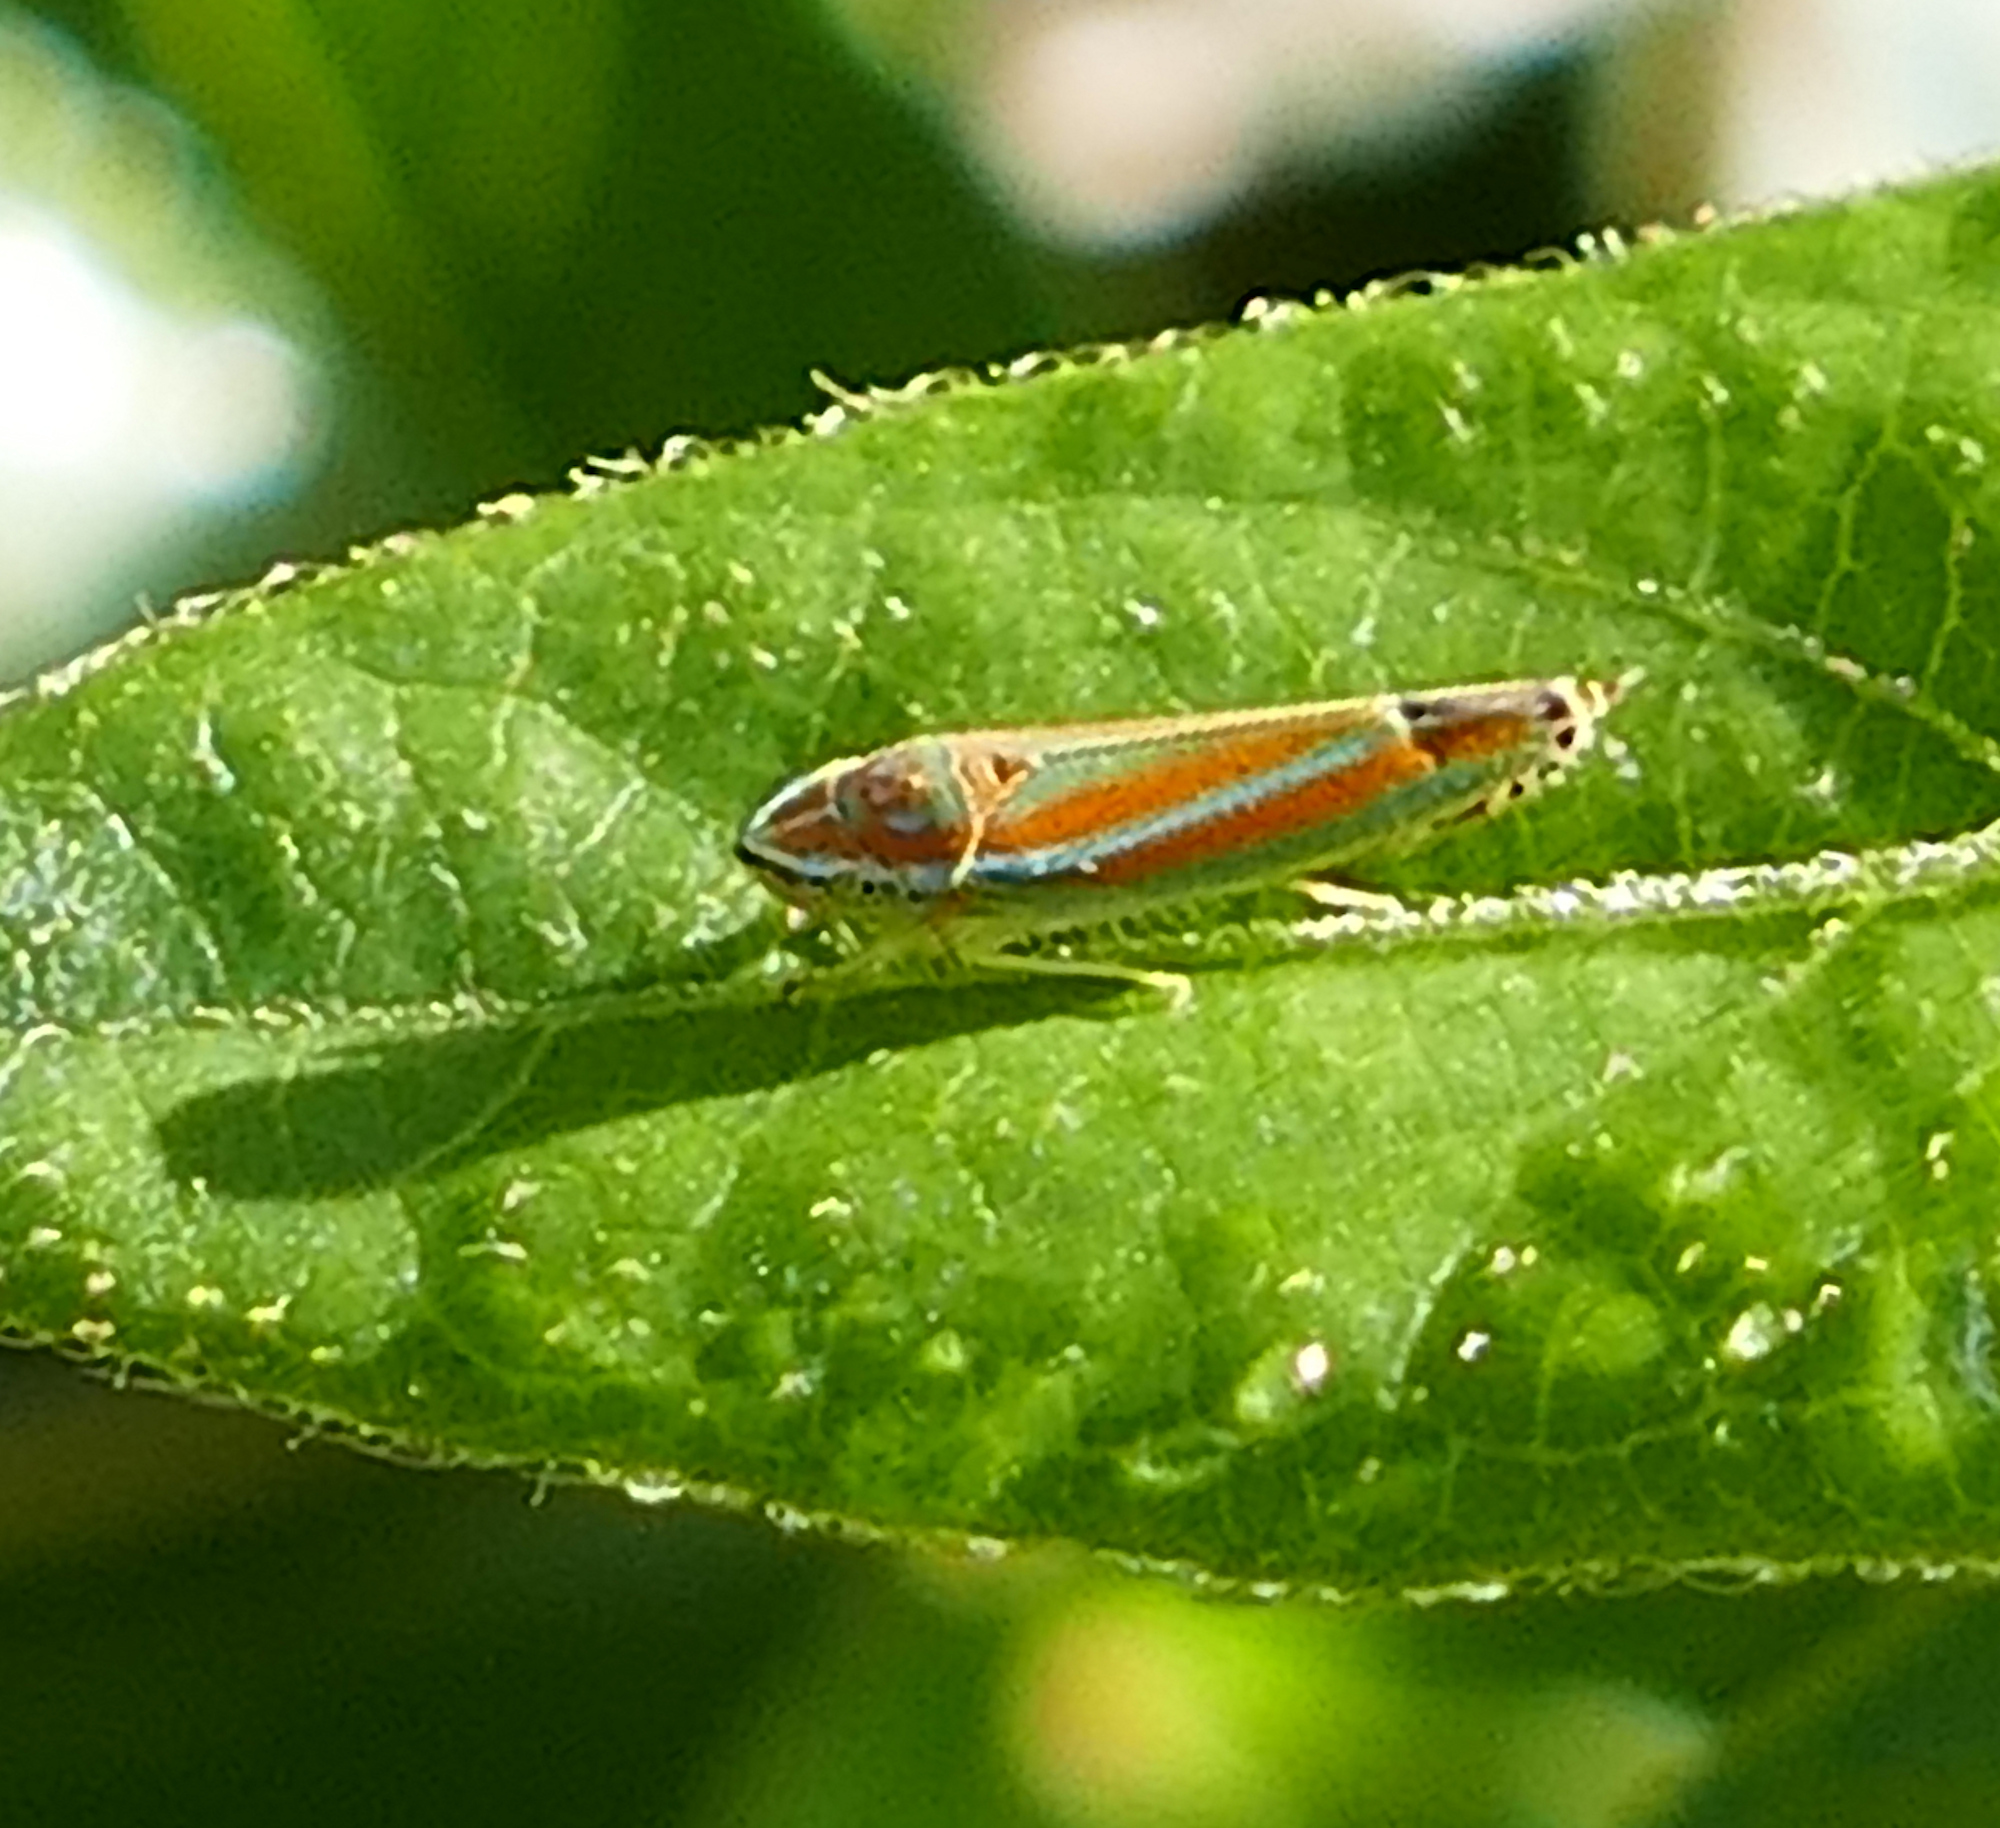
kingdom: Animalia
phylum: Arthropoda
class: Insecta
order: Hemiptera
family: Cicadellidae
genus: Graphocephala
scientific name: Graphocephala versuta
